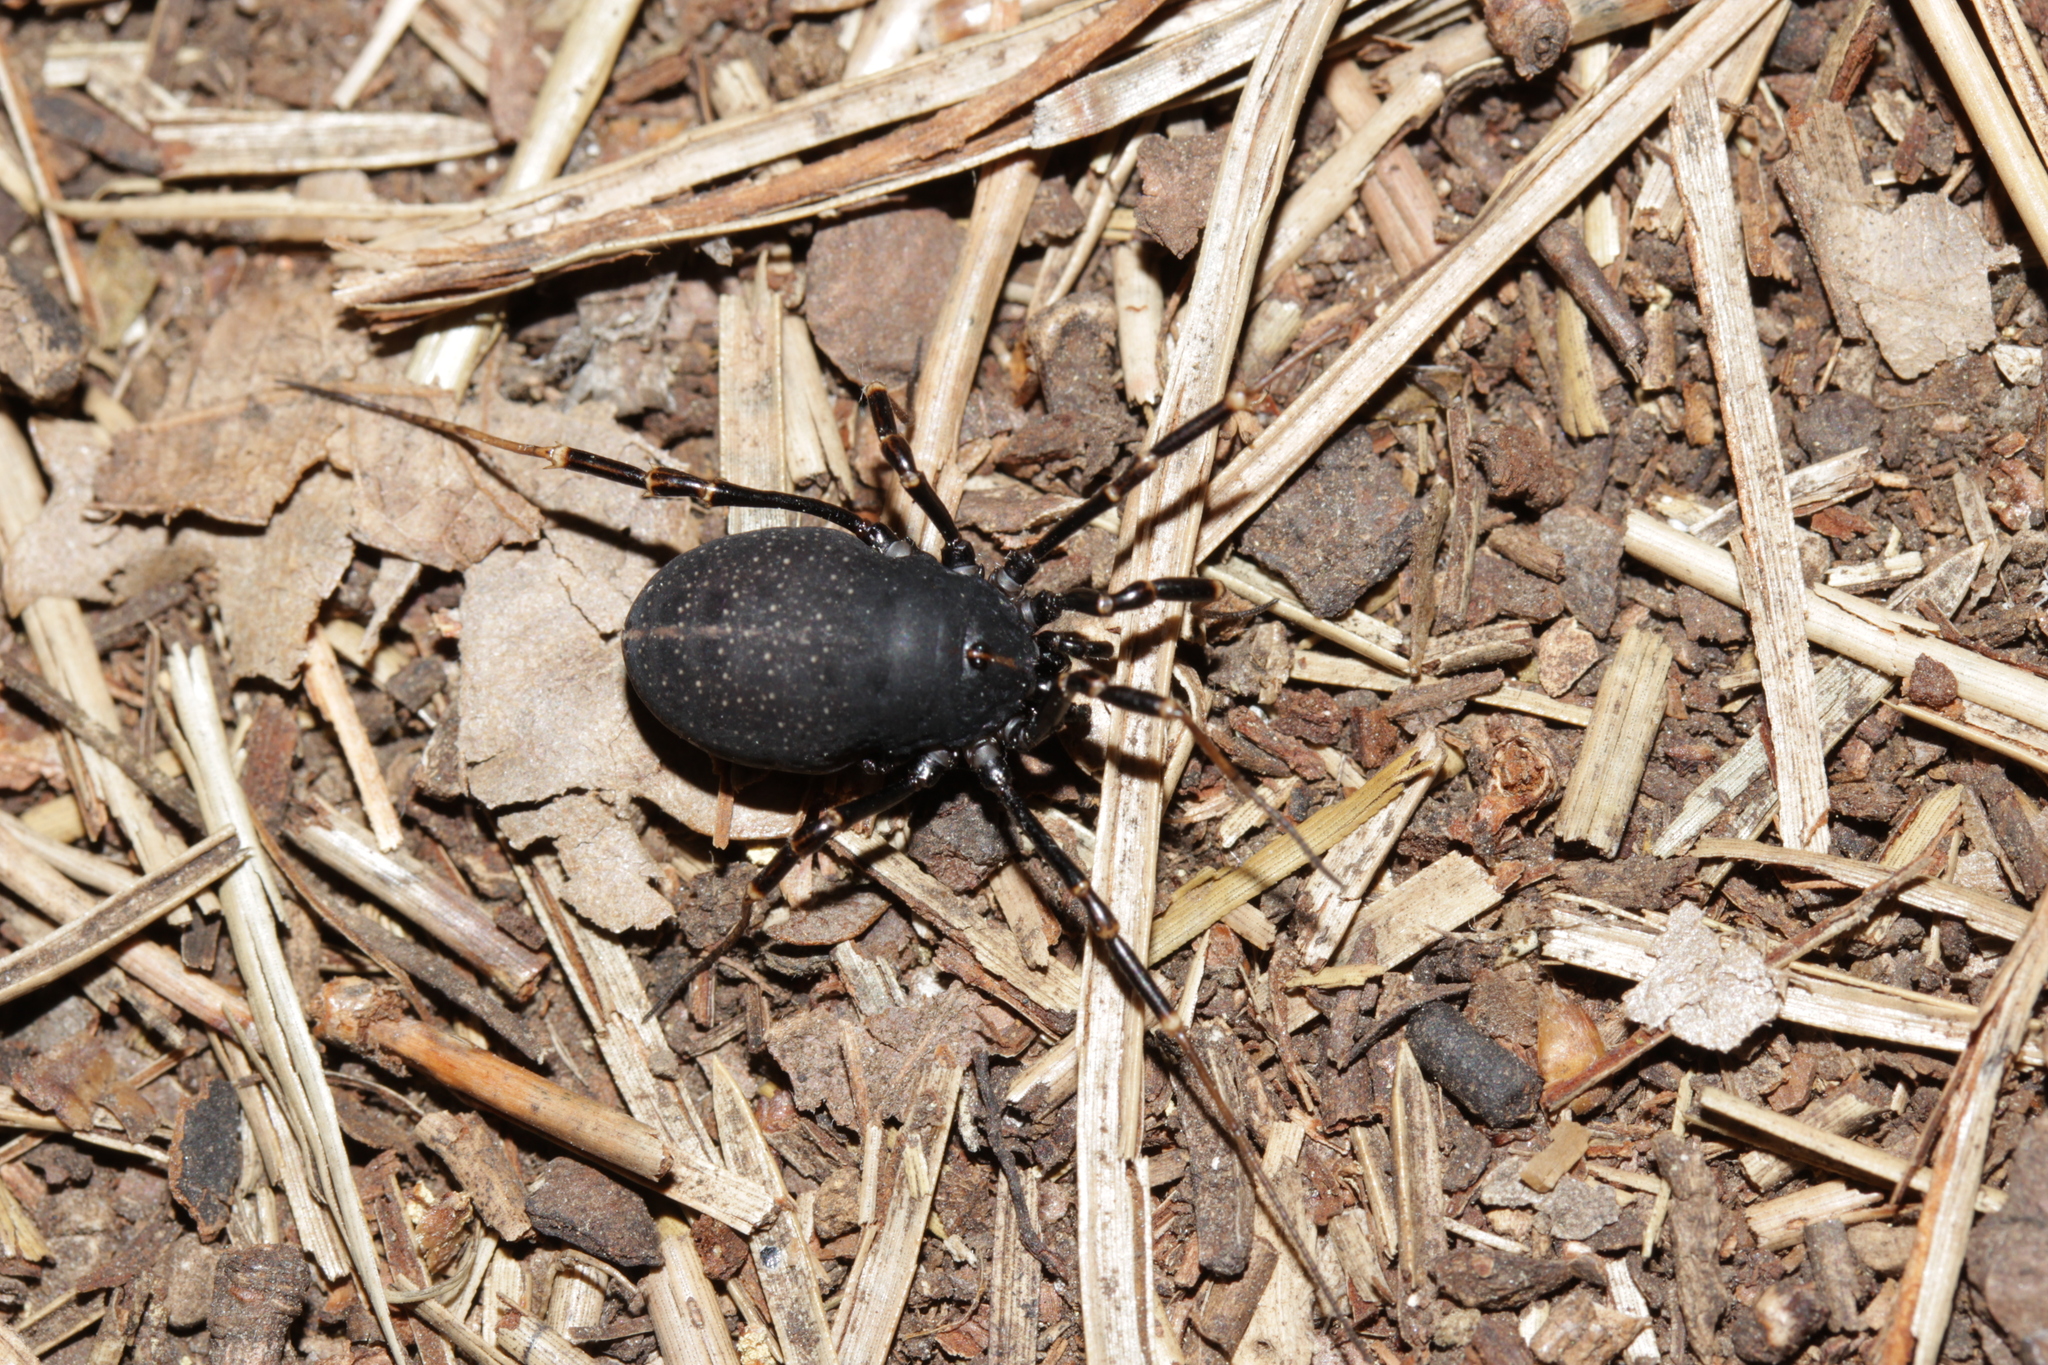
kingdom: Animalia
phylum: Arthropoda
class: Arachnida
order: Opiliones
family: Phalangiidae
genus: Egaenus
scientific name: Egaenus convexus
